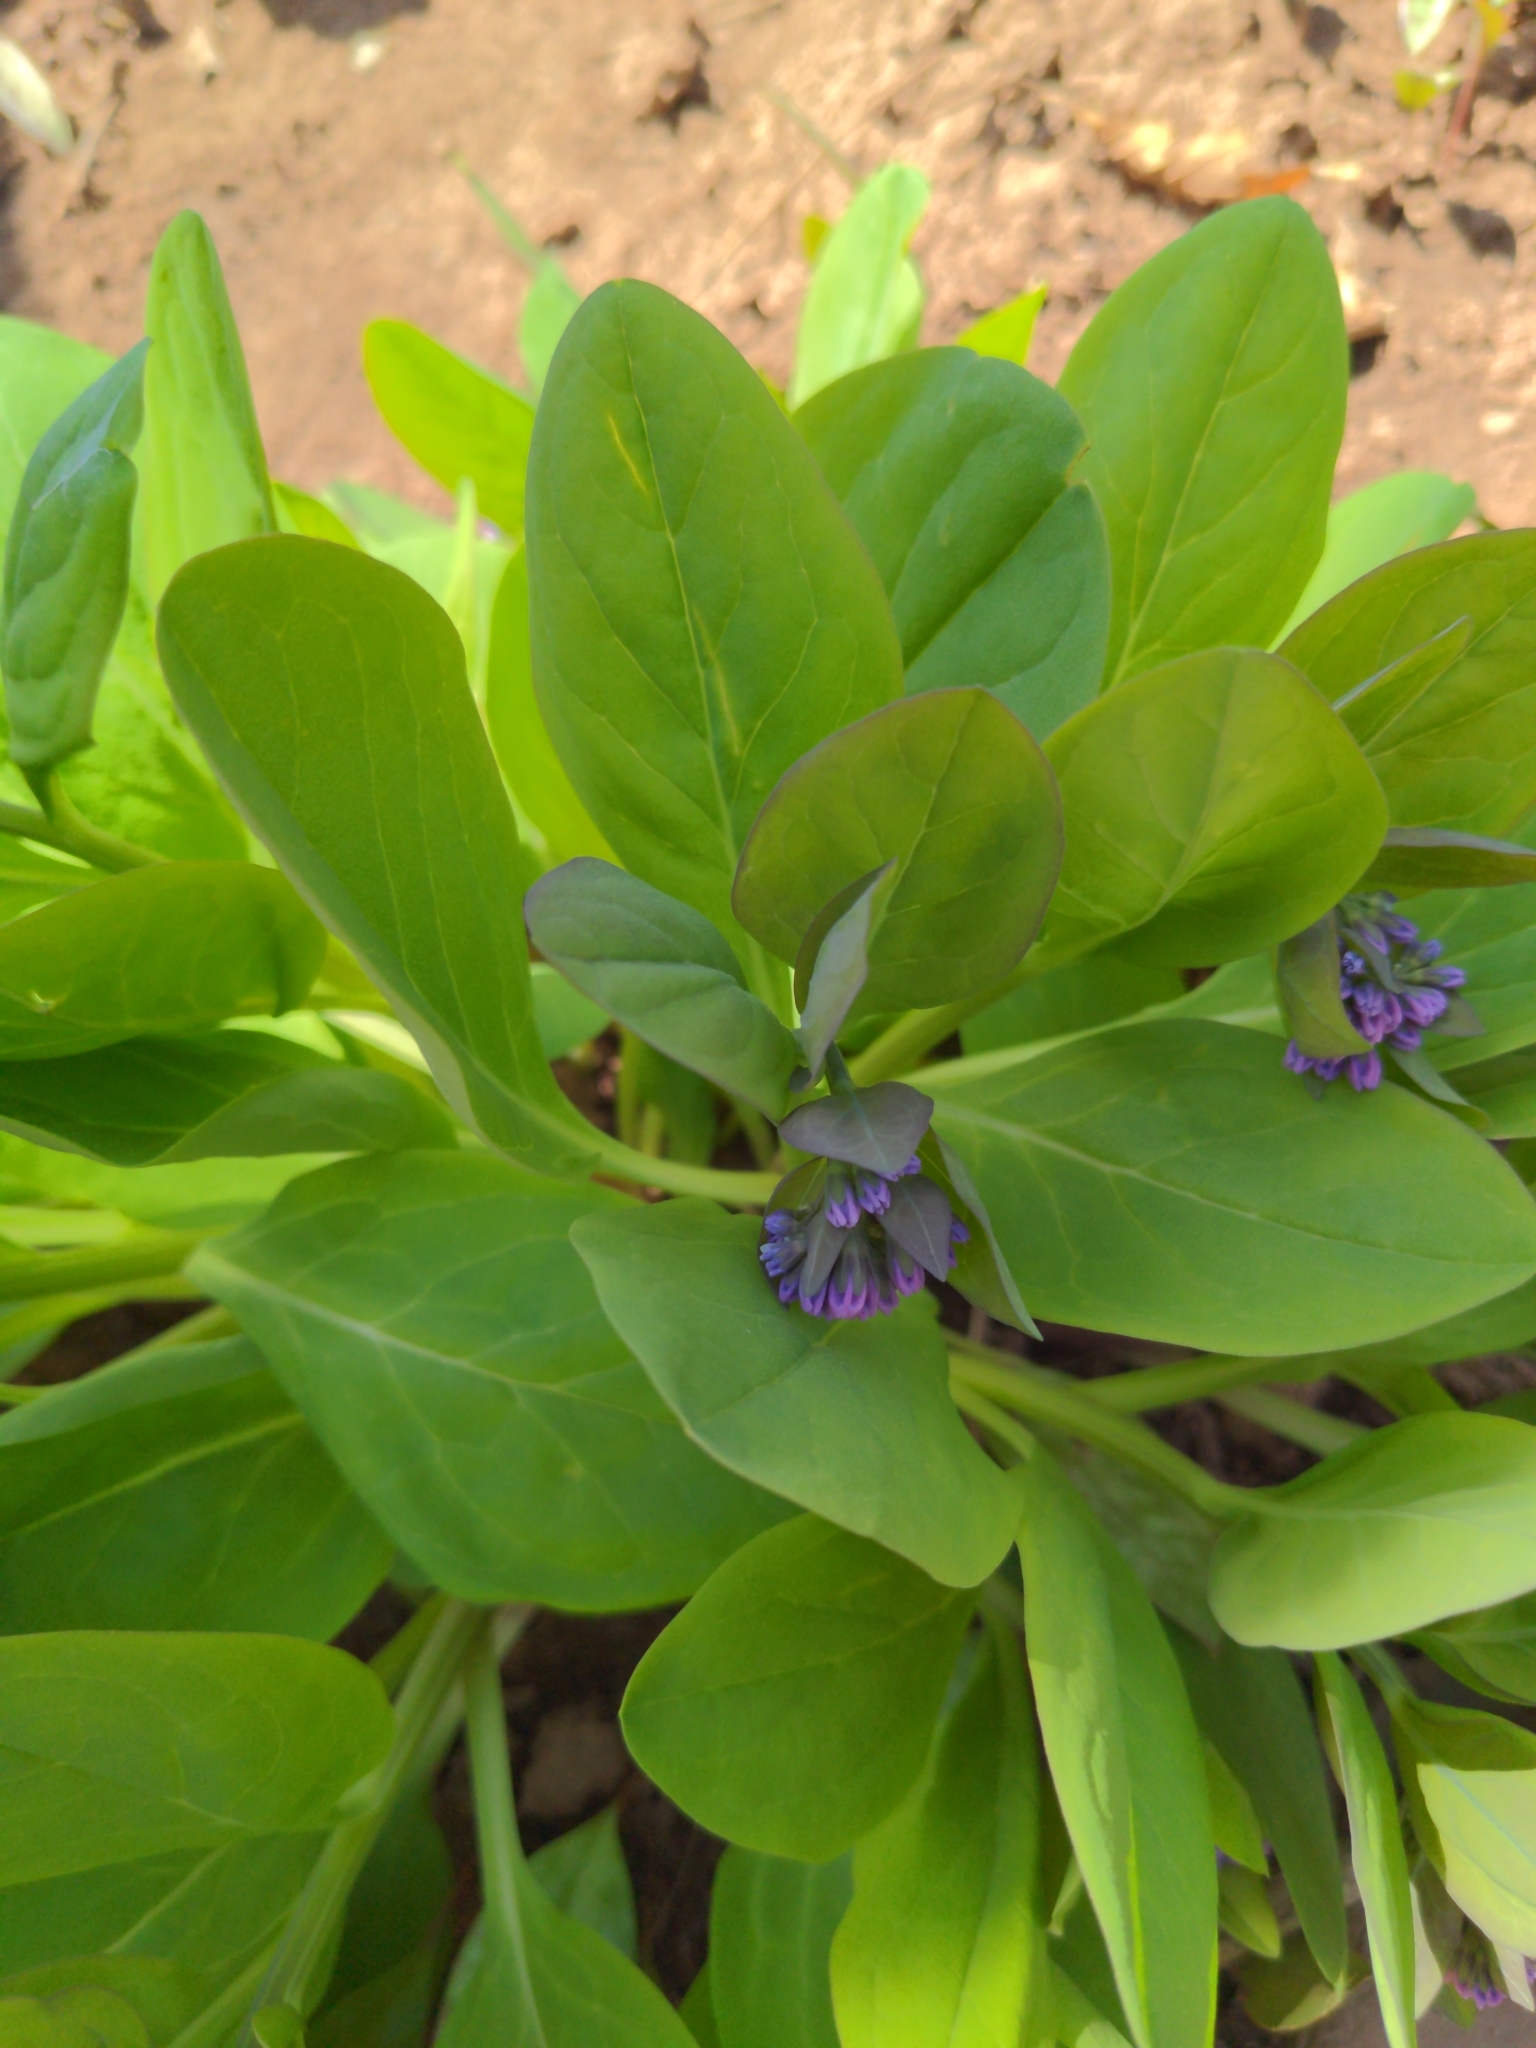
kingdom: Plantae
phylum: Tracheophyta
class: Magnoliopsida
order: Boraginales
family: Boraginaceae
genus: Mertensia
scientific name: Mertensia virginica
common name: Virginia bluebells
